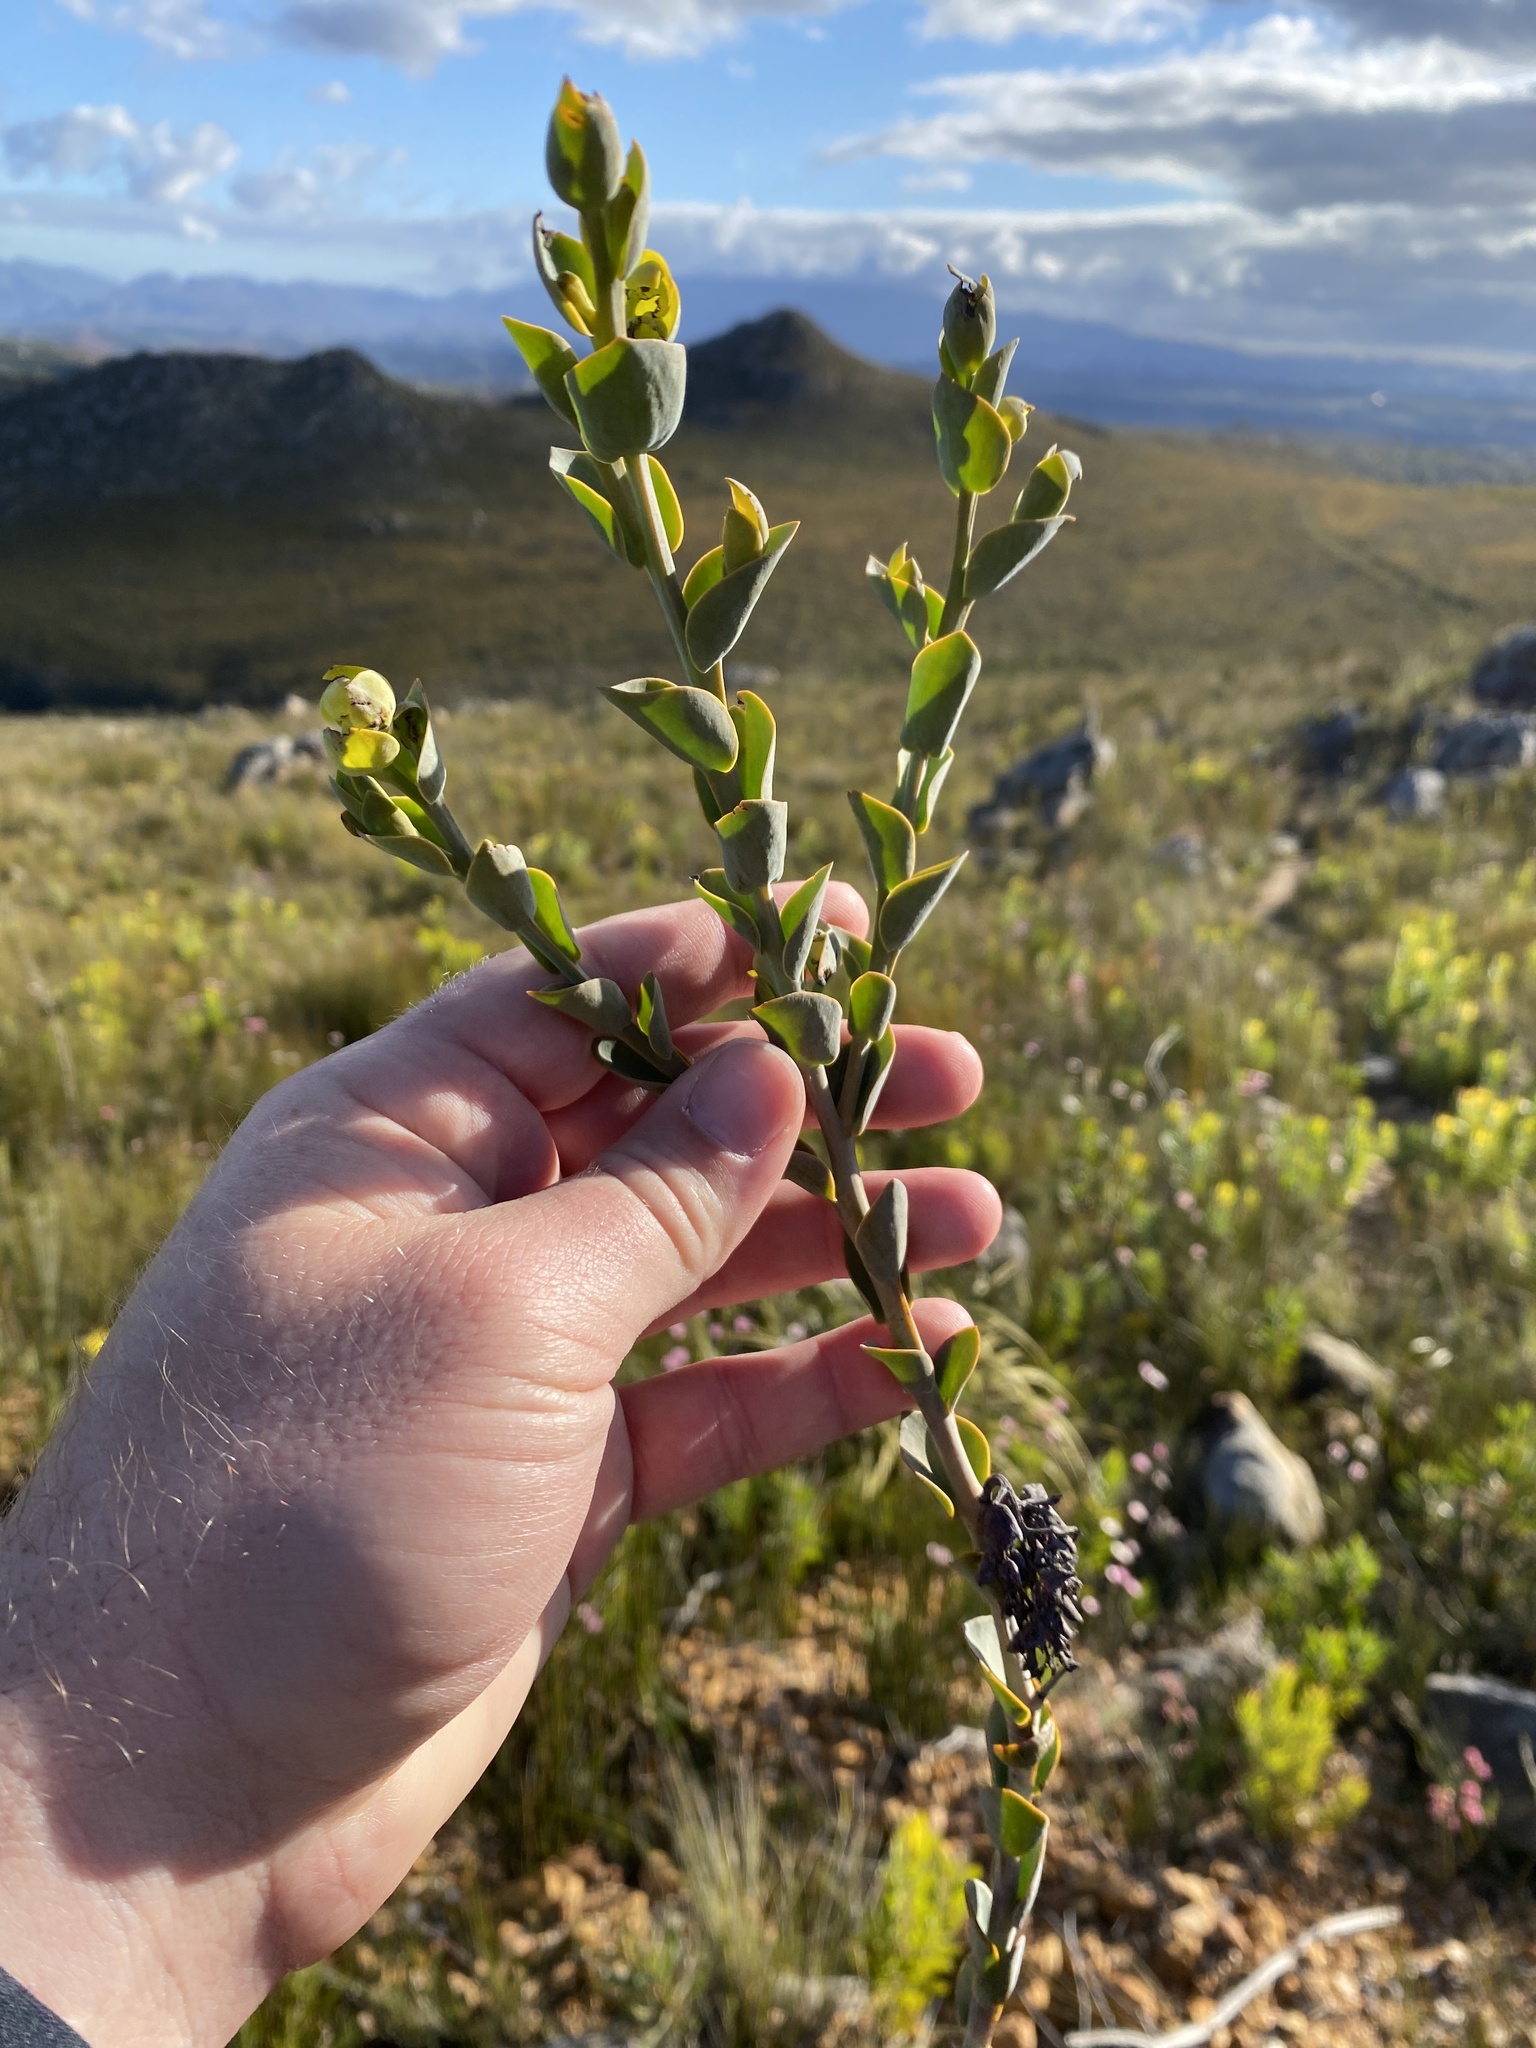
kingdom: Plantae
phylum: Tracheophyta
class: Magnoliopsida
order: Santalales
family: Thesiaceae
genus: Thesium
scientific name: Thesium euphorbioides
